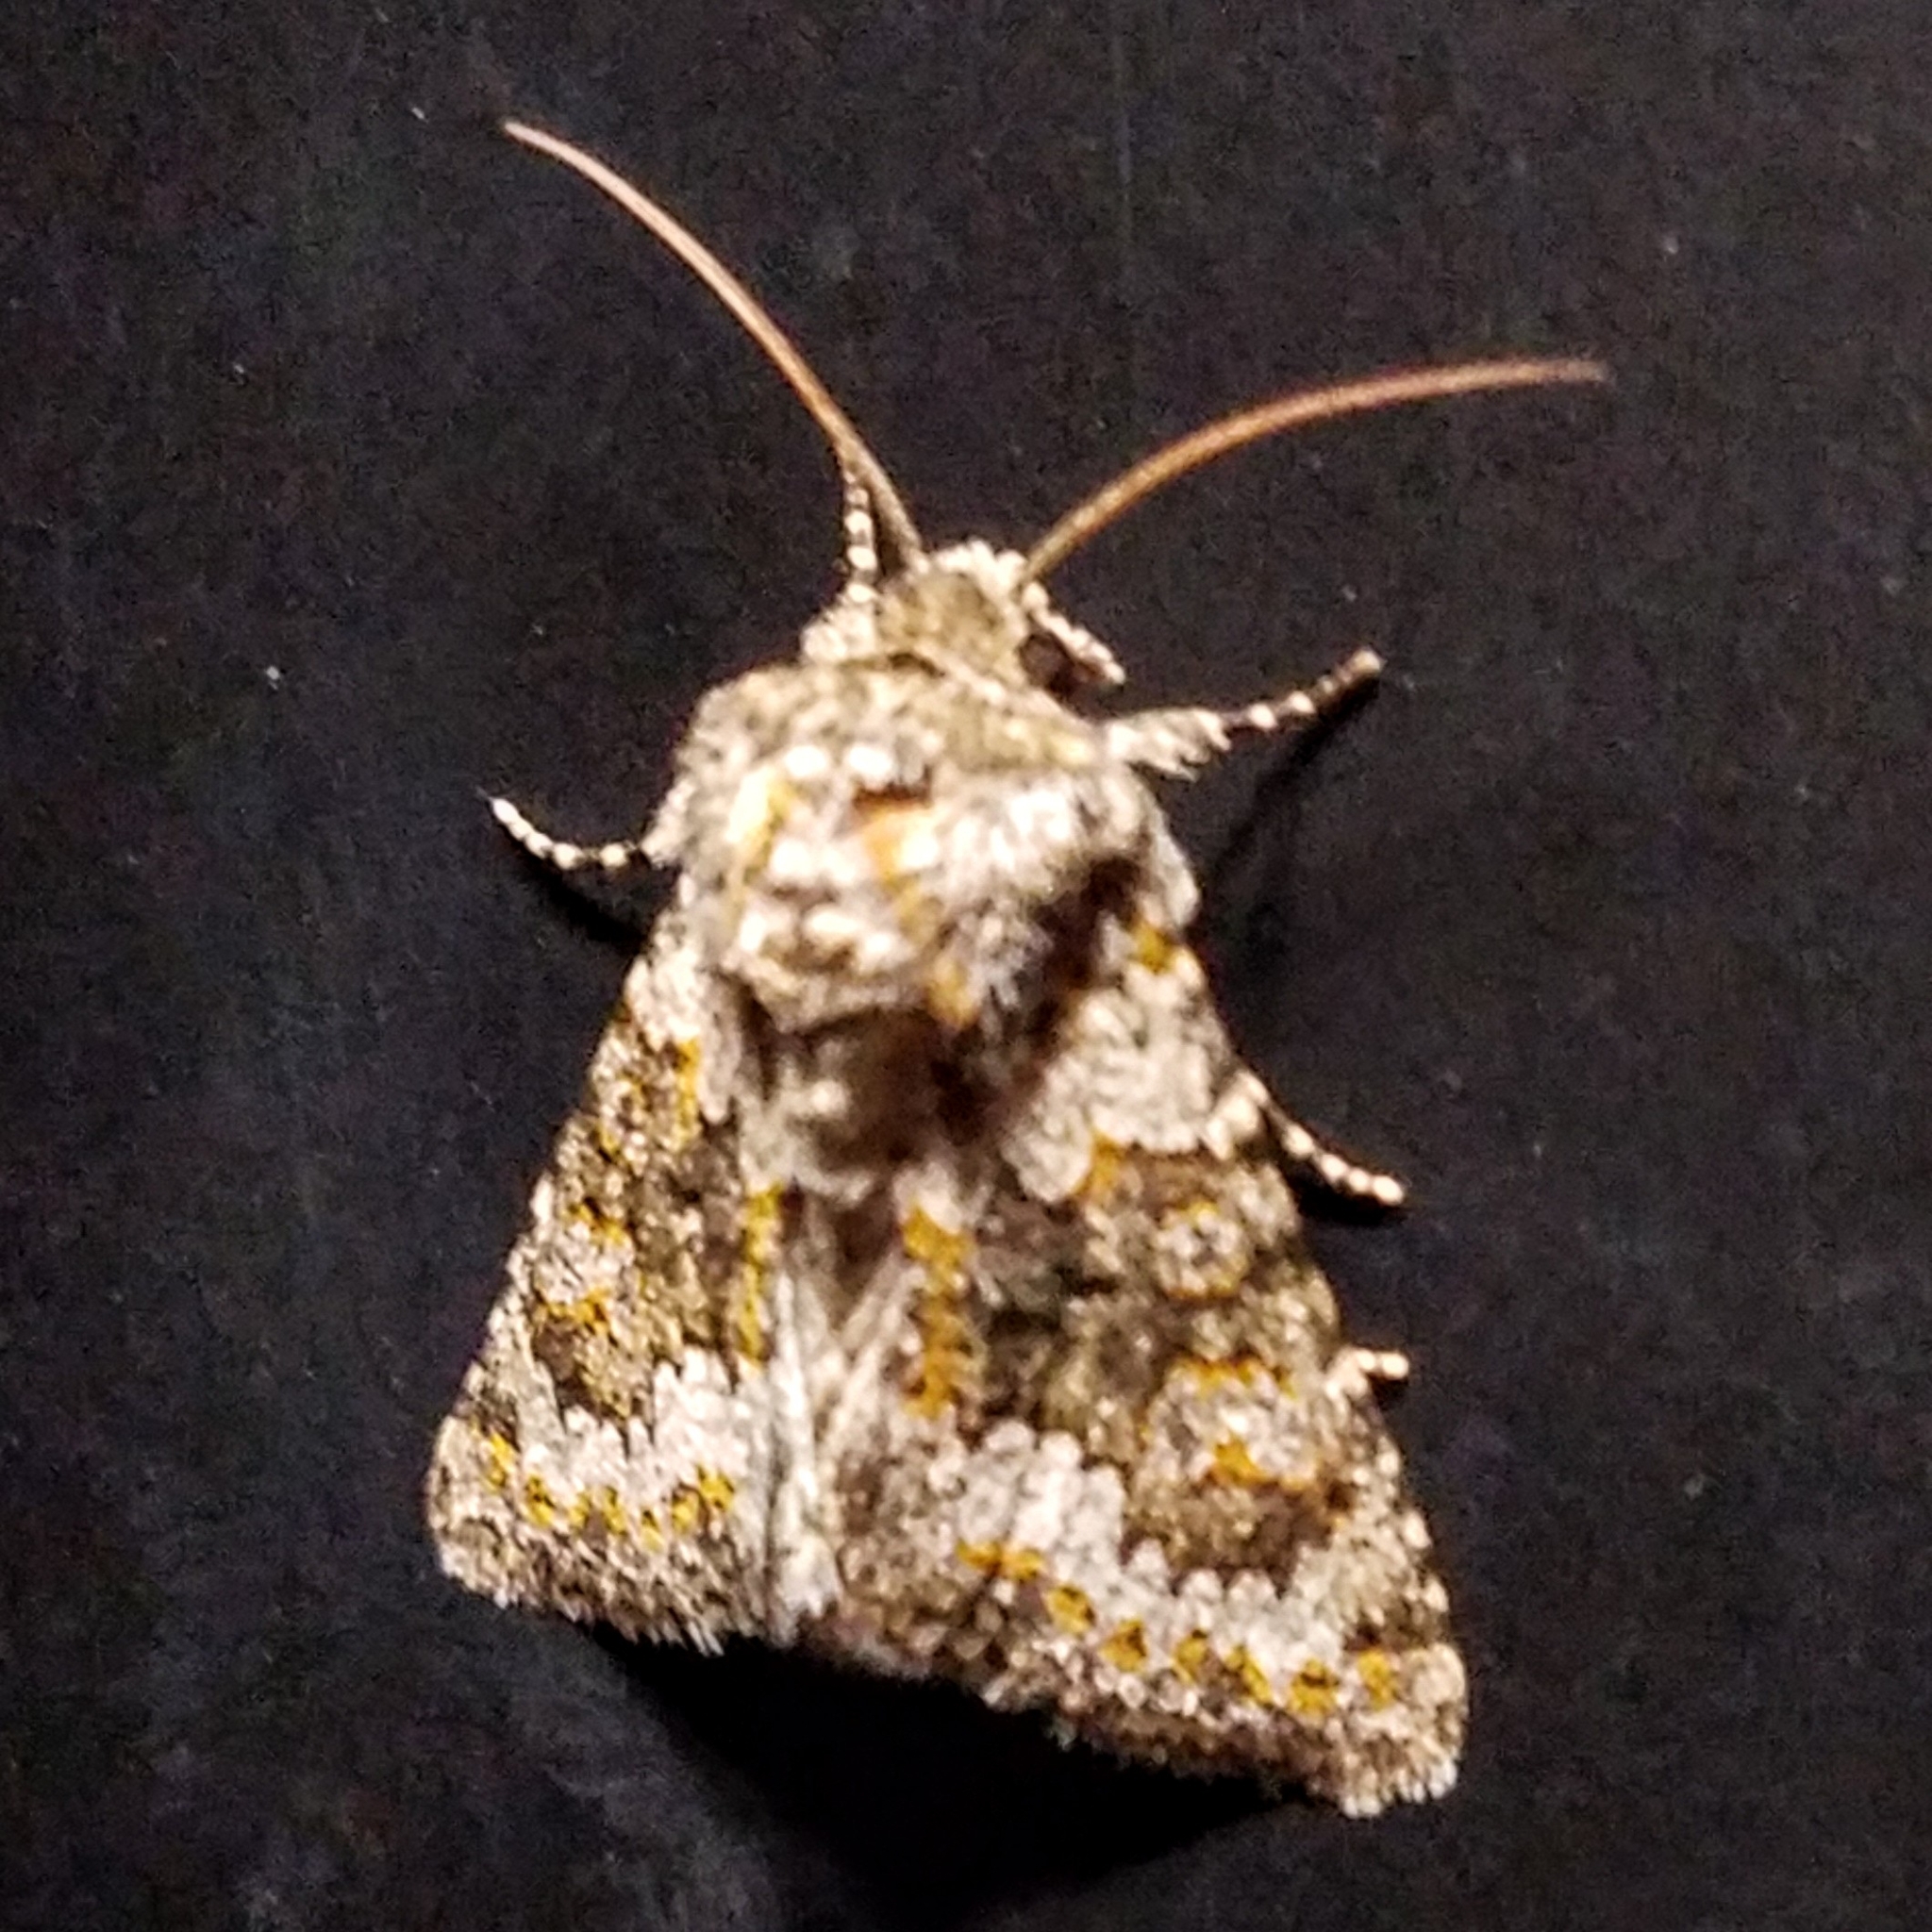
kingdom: Animalia
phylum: Arthropoda
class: Insecta
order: Lepidoptera
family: Noctuidae
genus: Hecatera
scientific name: Hecatera dysodea
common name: Small ranunculus
